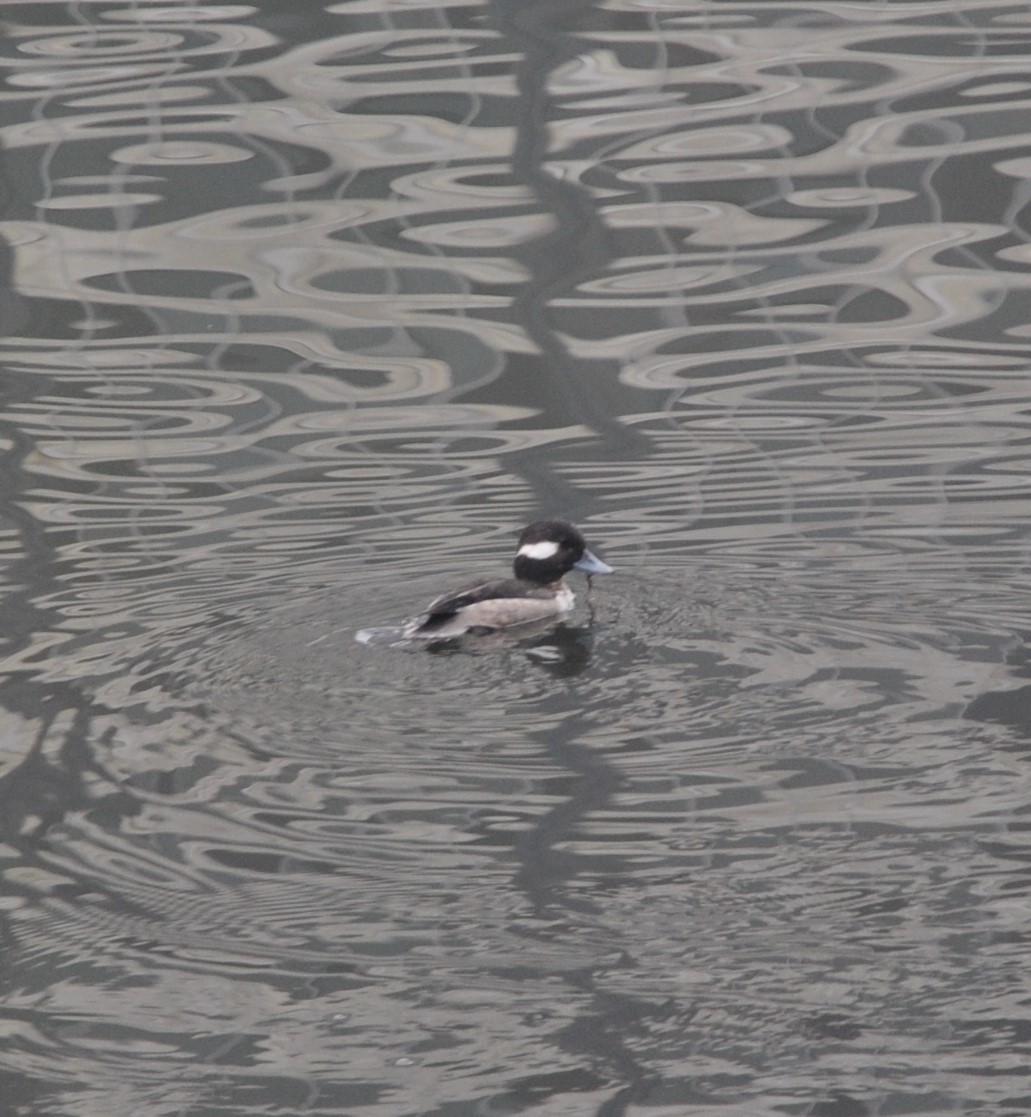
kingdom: Animalia
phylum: Chordata
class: Aves
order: Anseriformes
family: Anatidae
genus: Bucephala
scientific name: Bucephala albeola
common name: Bufflehead
